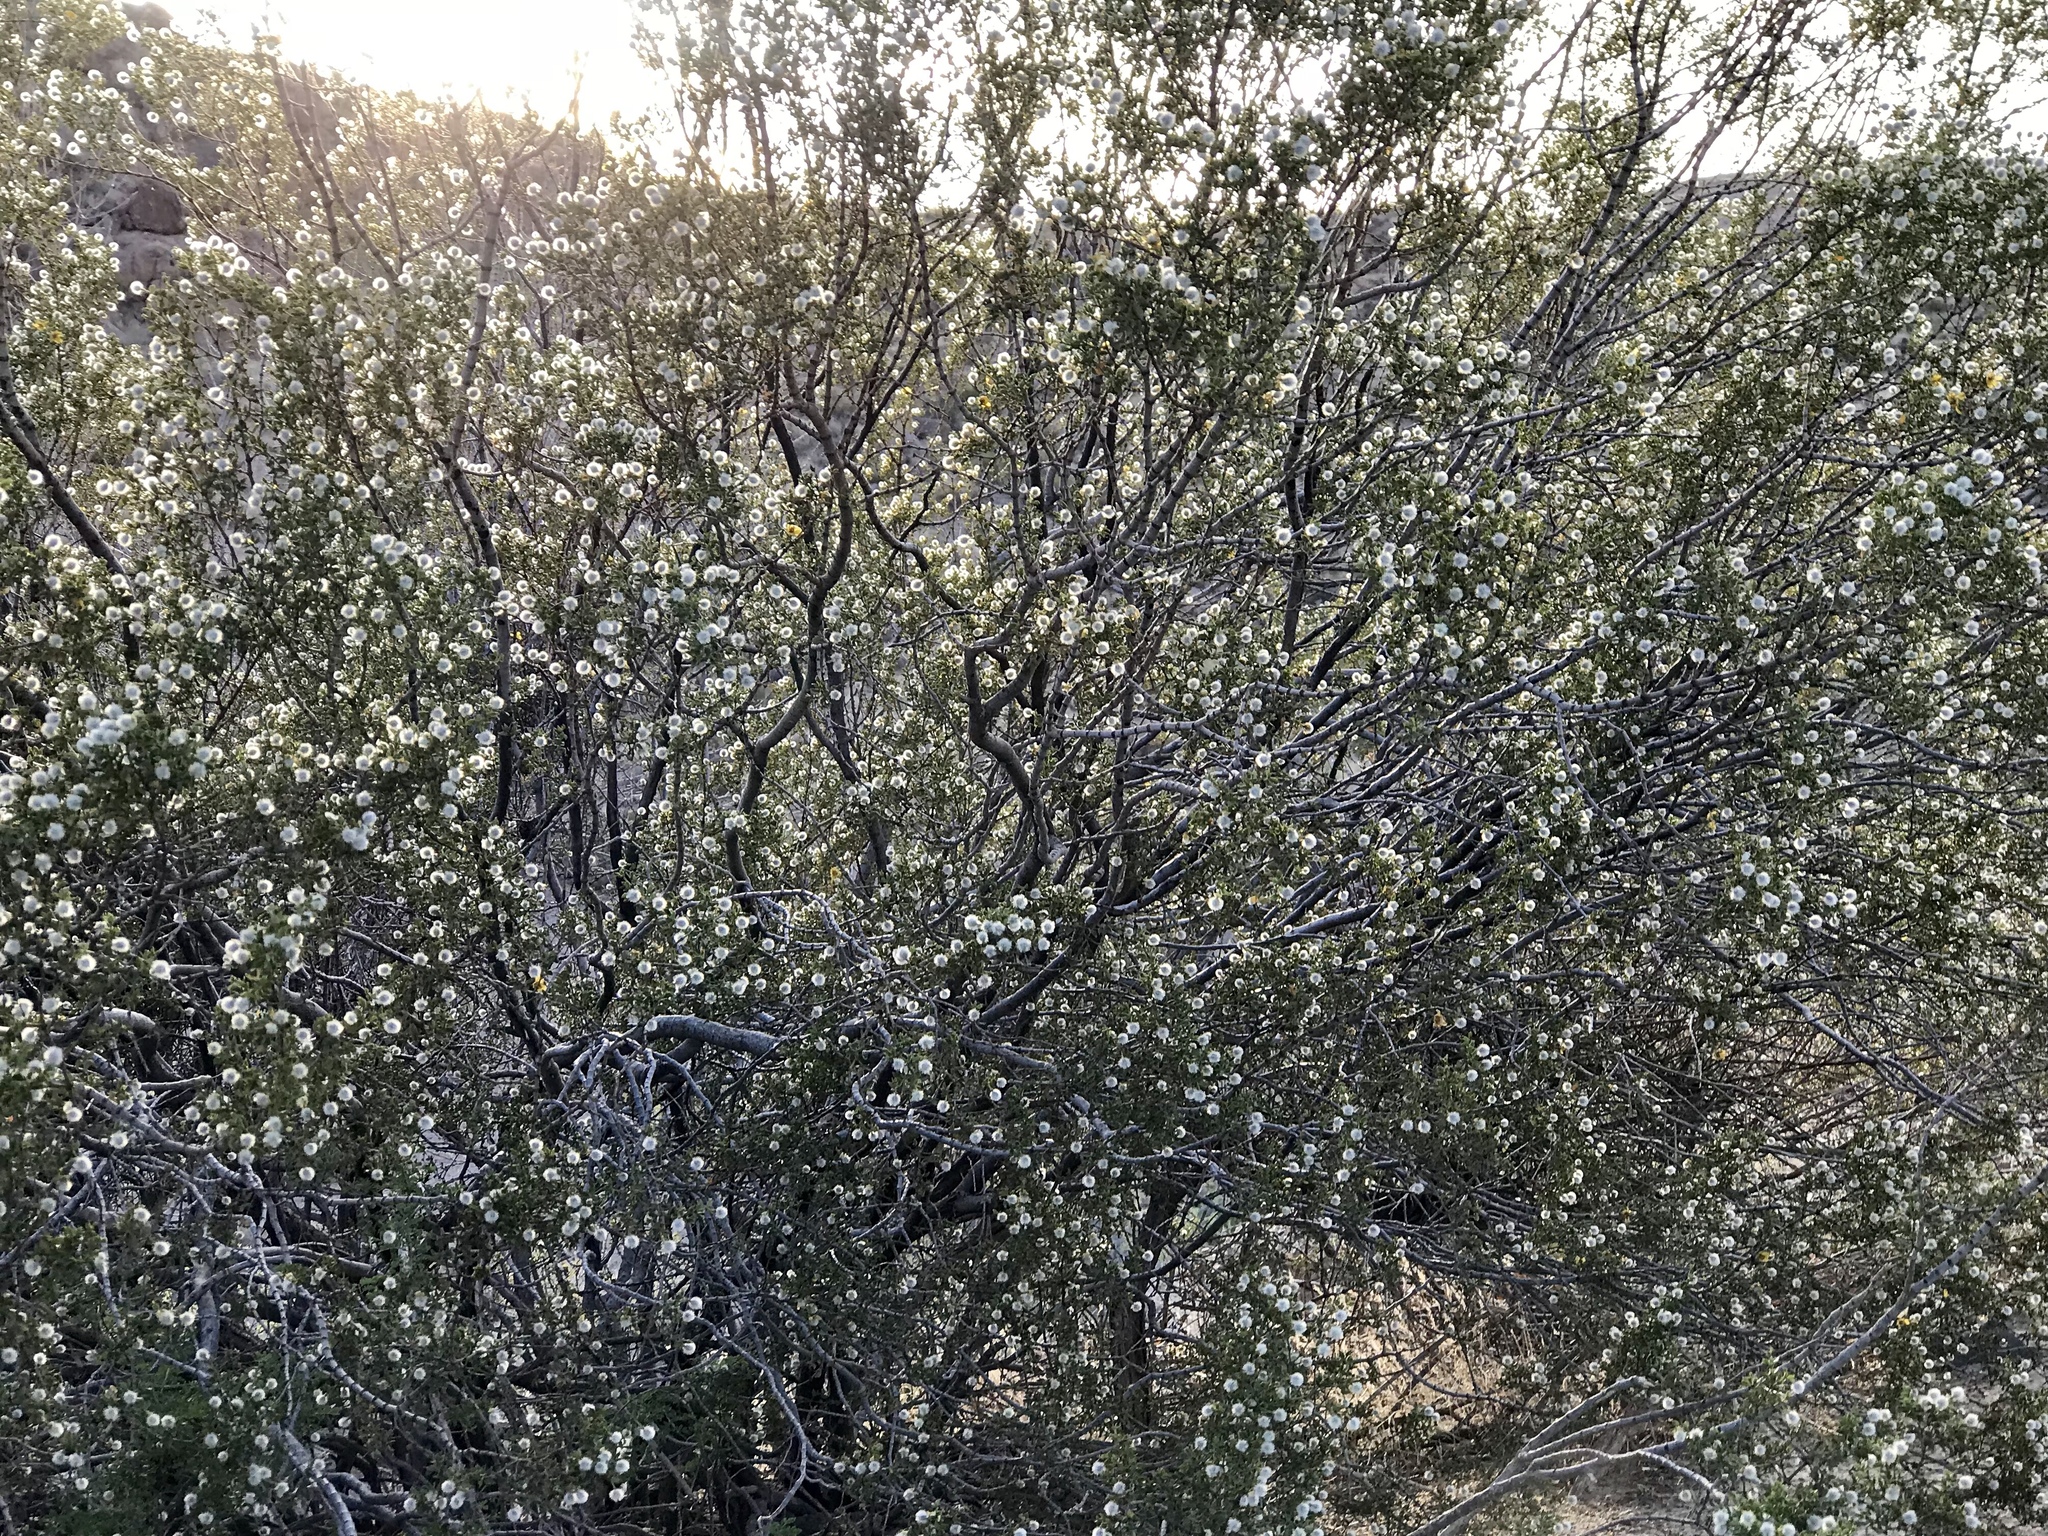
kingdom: Plantae
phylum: Tracheophyta
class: Magnoliopsida
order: Zygophyllales
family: Zygophyllaceae
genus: Larrea
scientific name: Larrea tridentata
